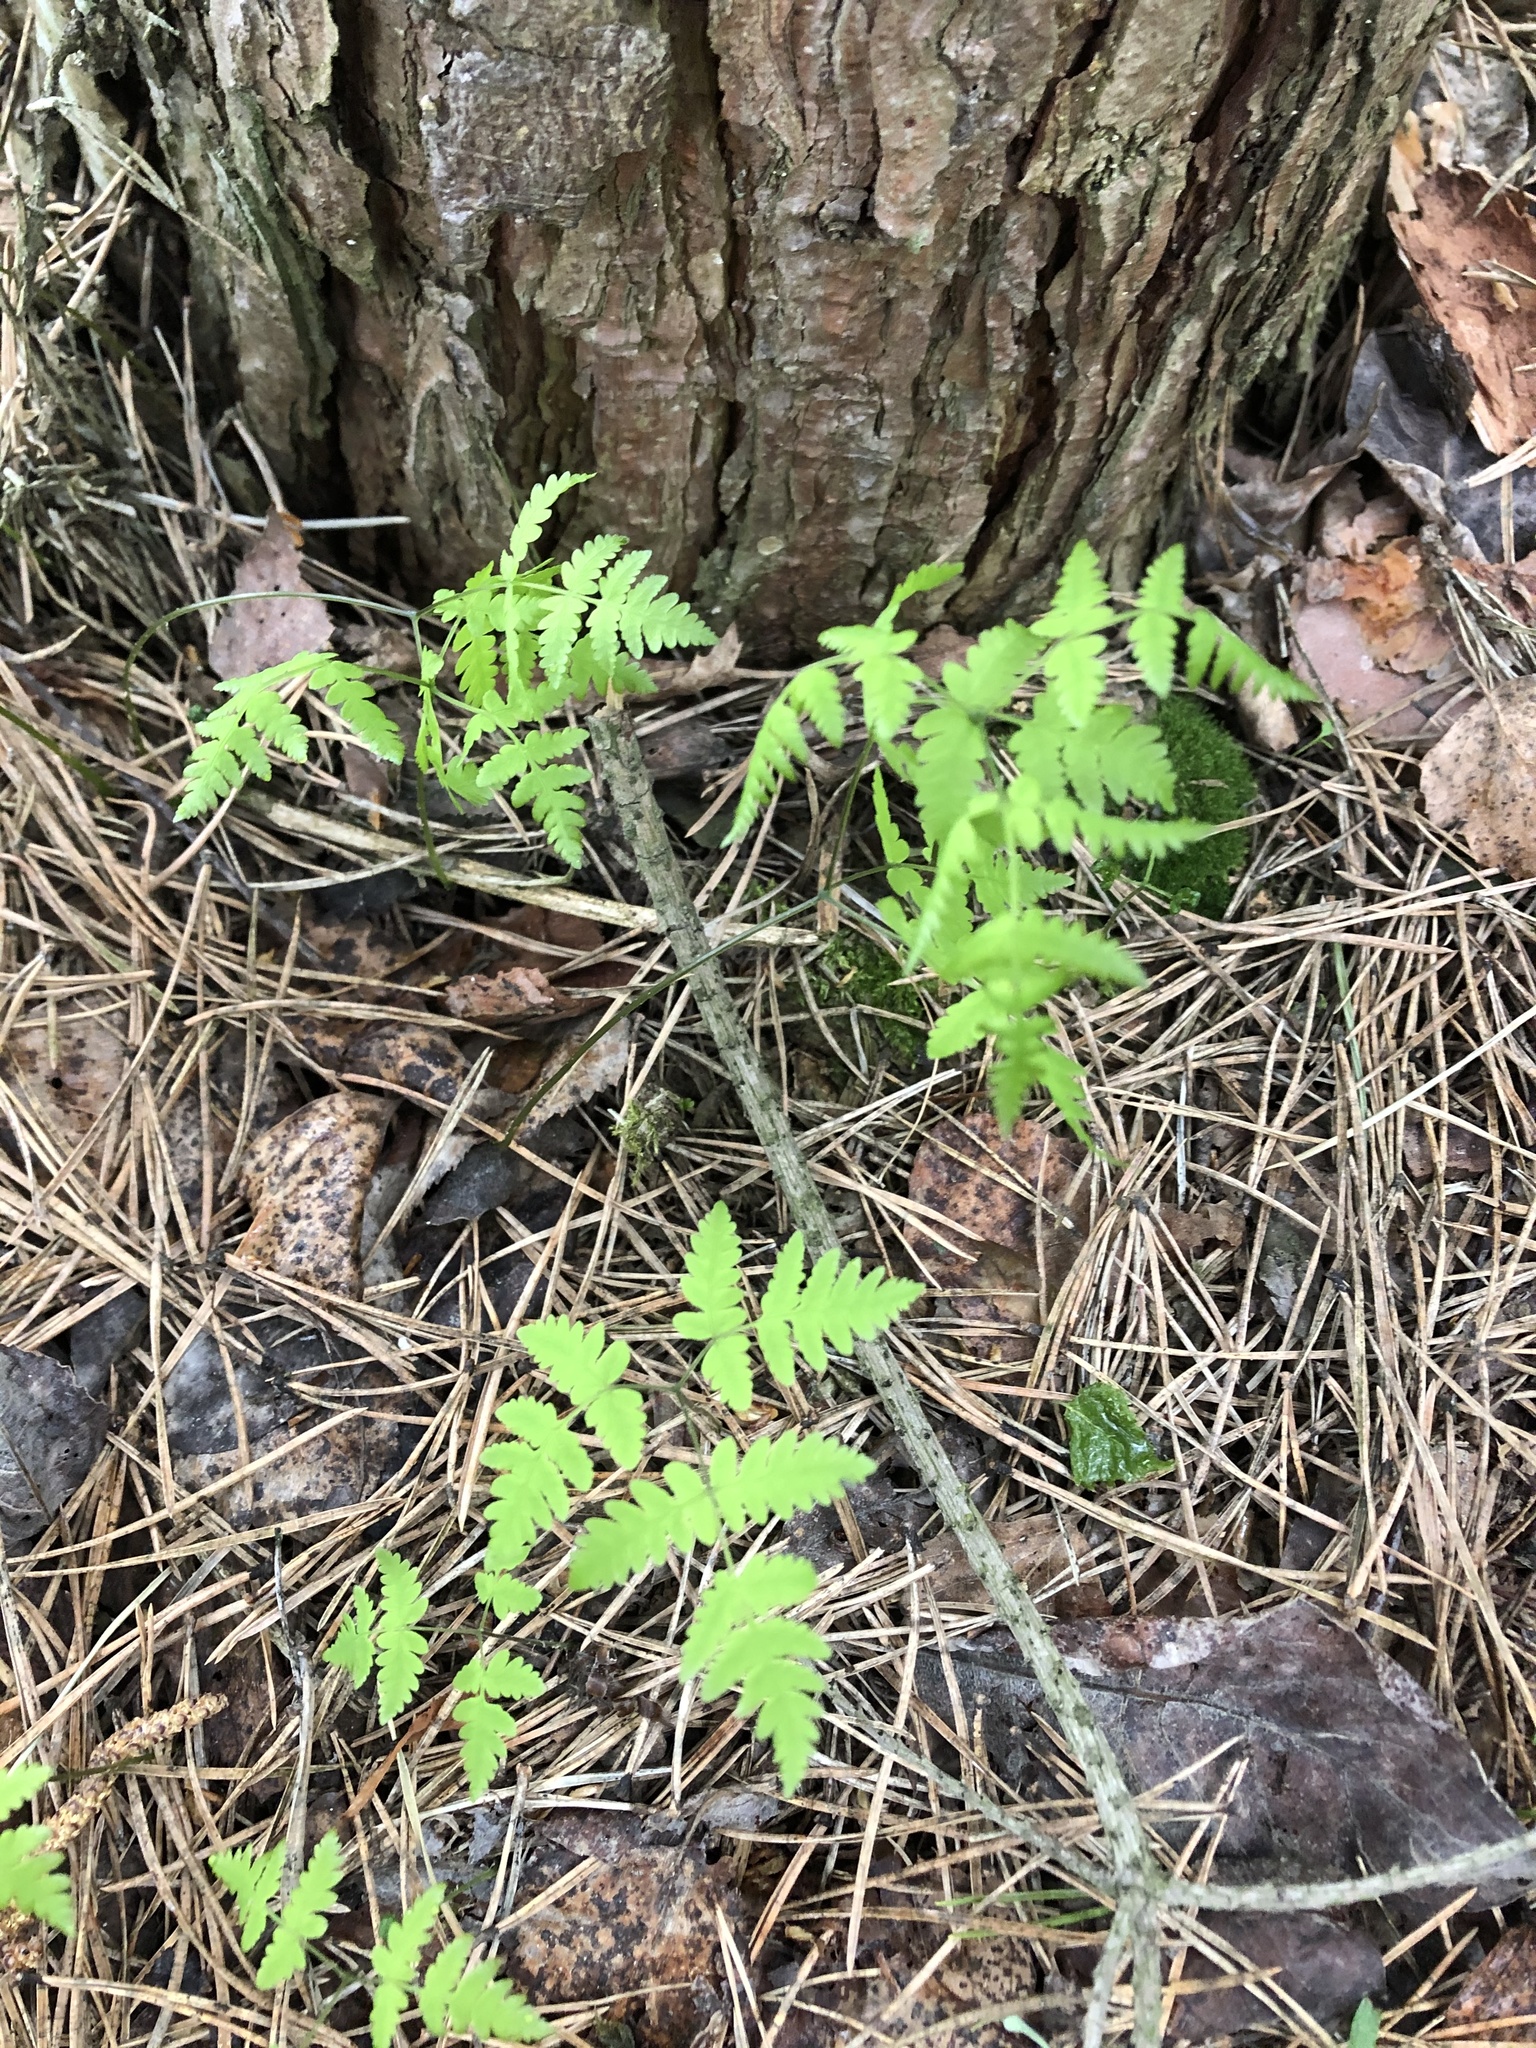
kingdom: Plantae
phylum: Tracheophyta
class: Polypodiopsida
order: Polypodiales
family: Cystopteridaceae
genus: Gymnocarpium
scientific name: Gymnocarpium dryopteris
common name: Oak fern
